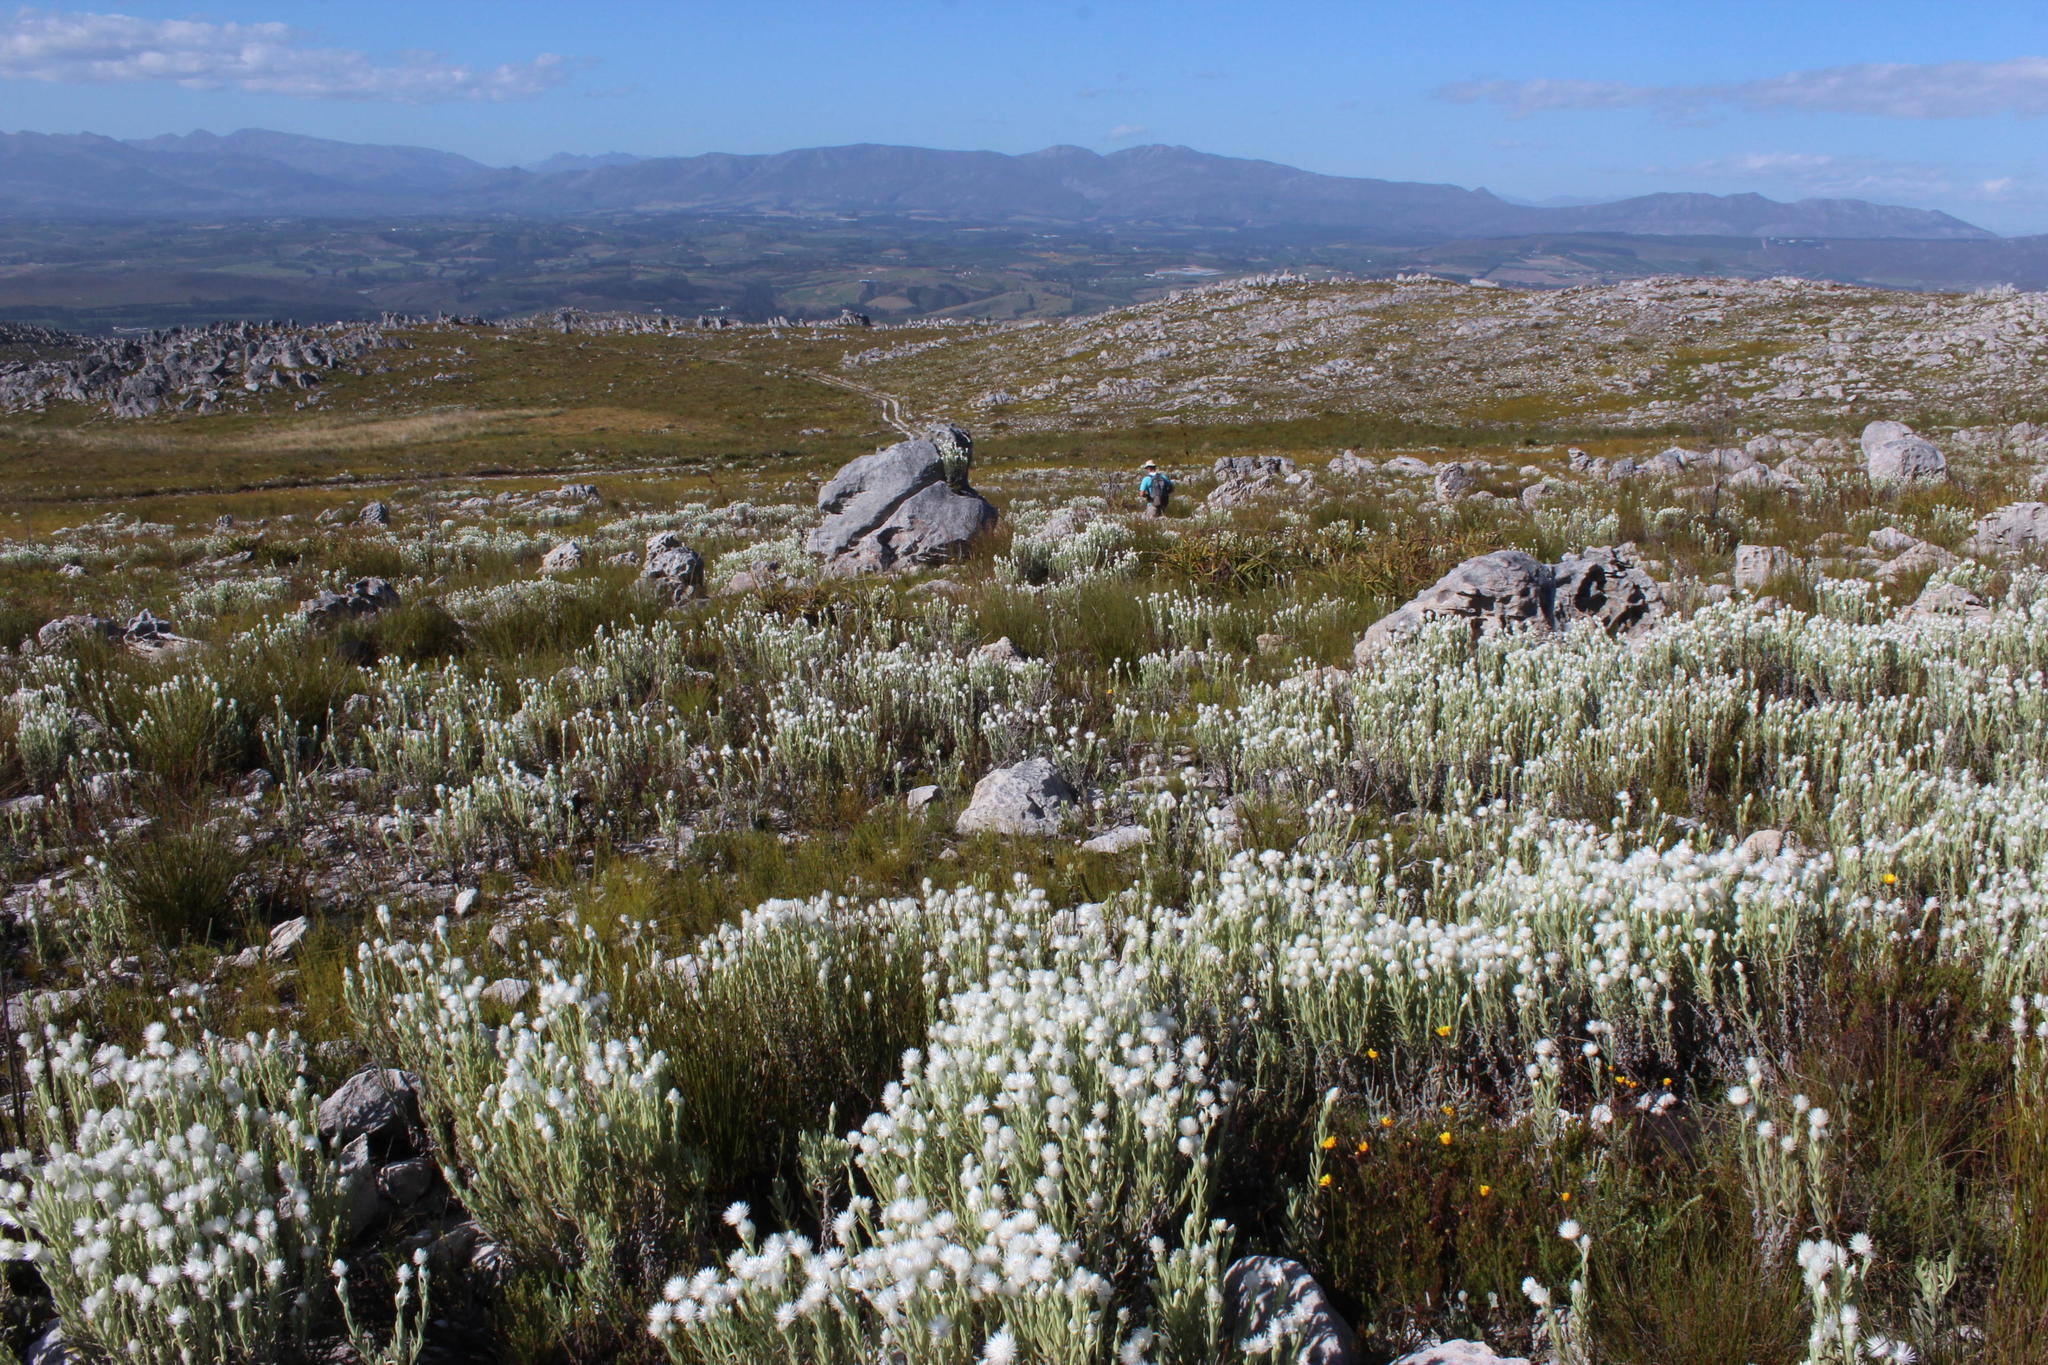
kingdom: Plantae
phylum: Tracheophyta
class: Magnoliopsida
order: Asterales
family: Asteraceae
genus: Syncarpha
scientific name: Syncarpha vestita
